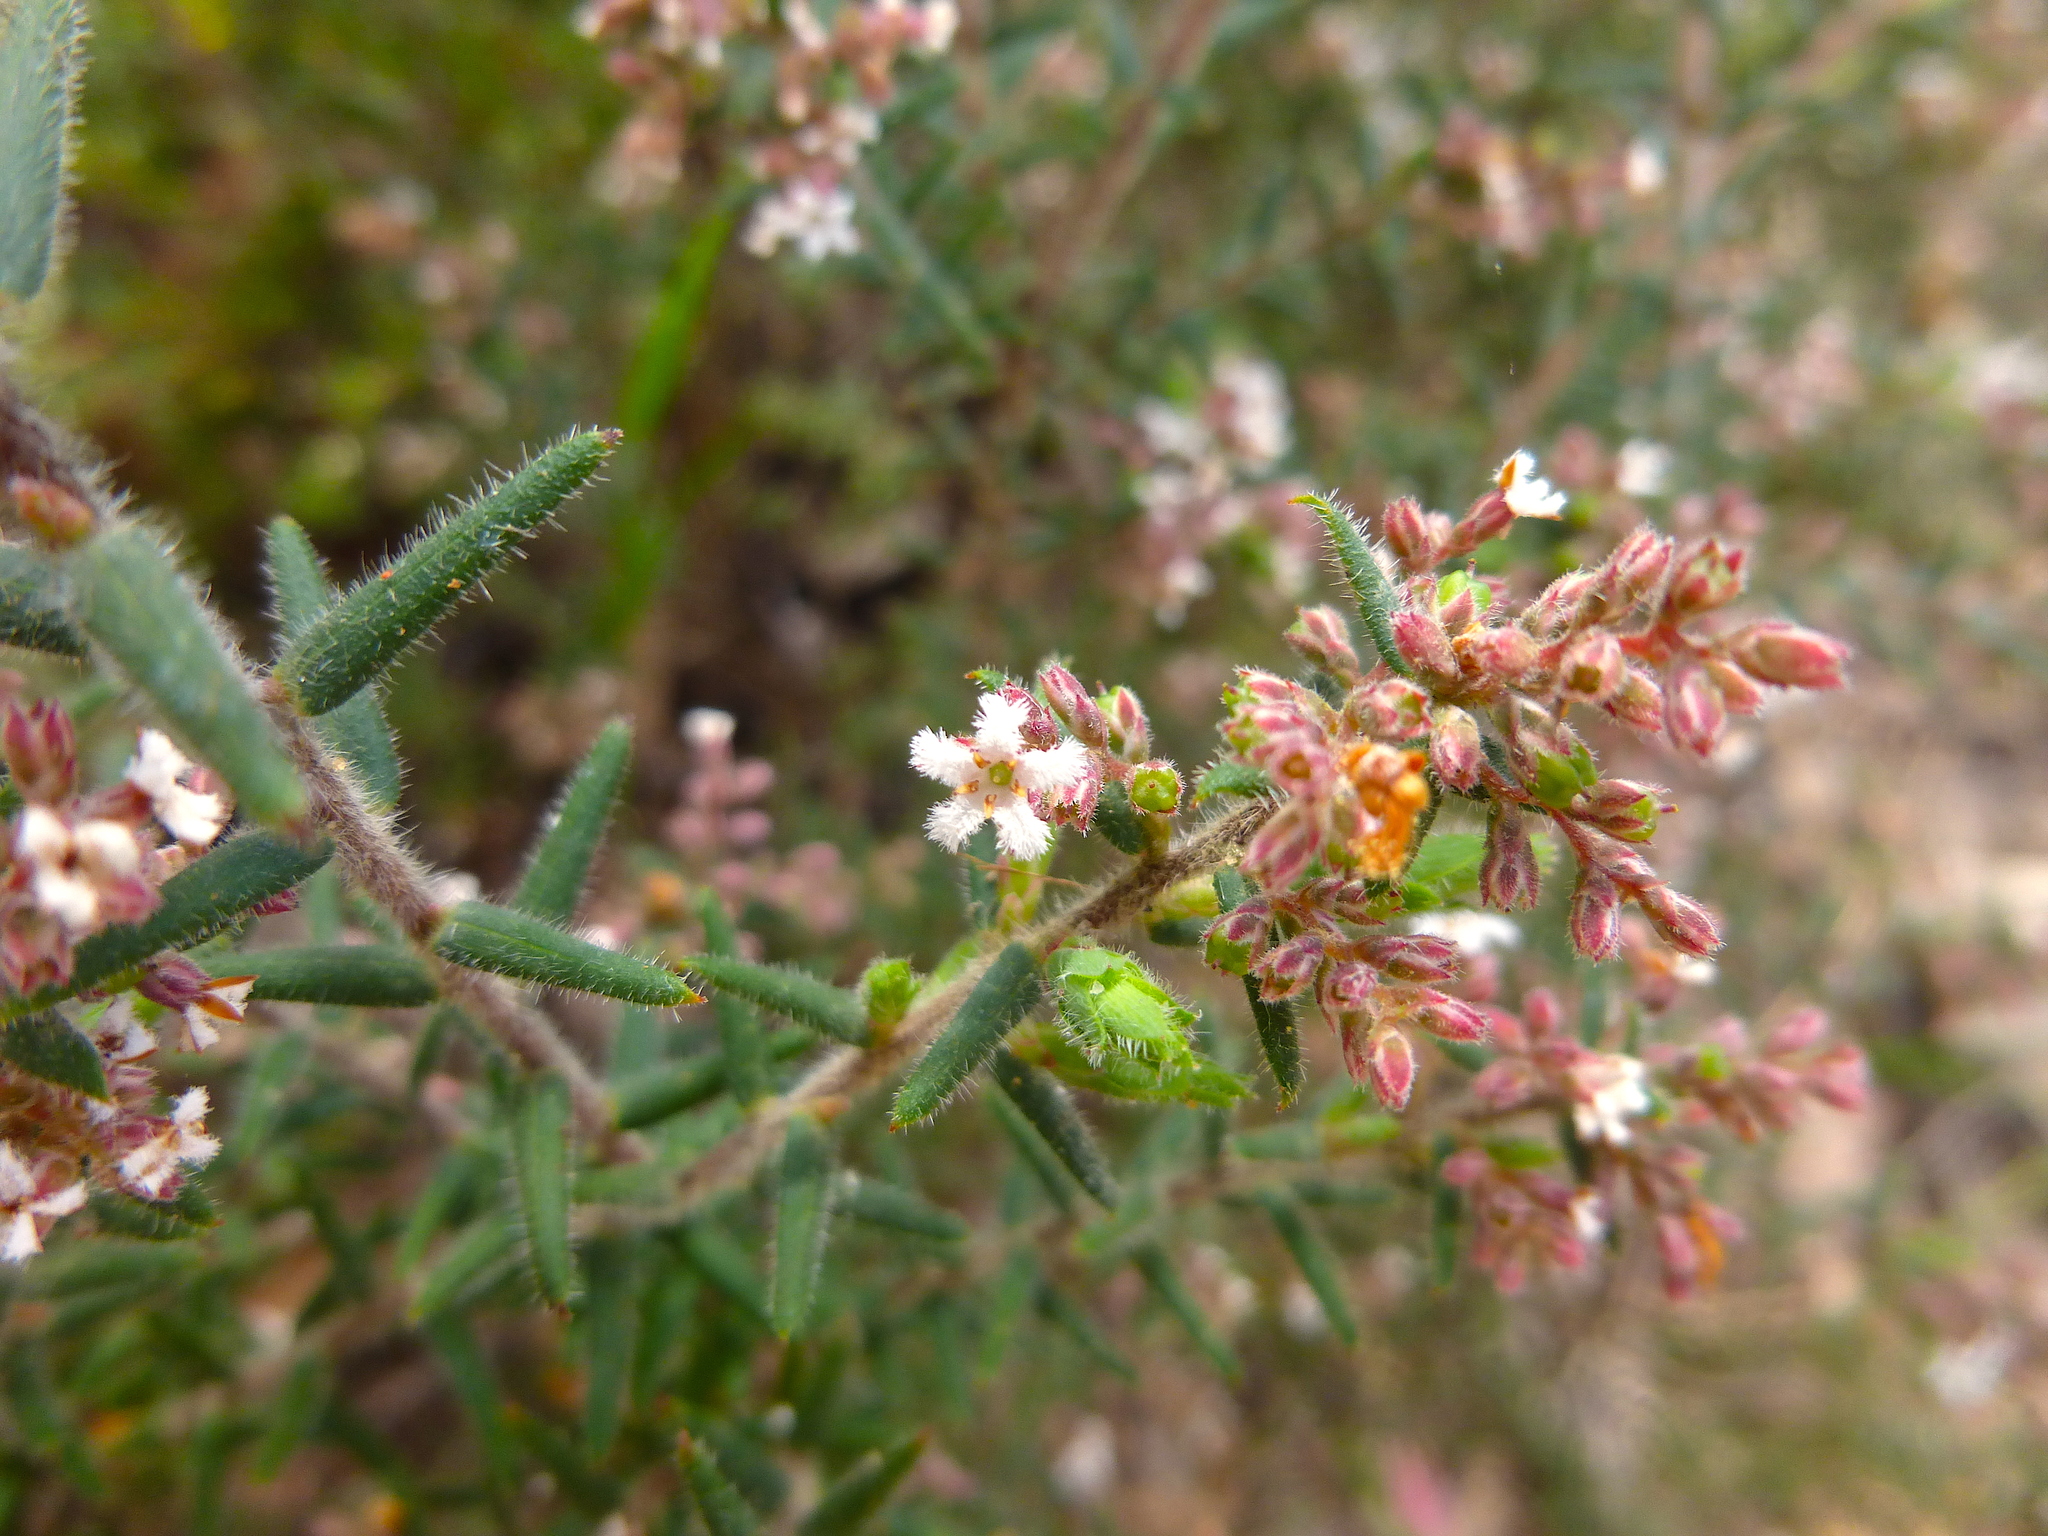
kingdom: Plantae
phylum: Tracheophyta
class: Magnoliopsida
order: Ericales
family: Ericaceae
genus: Leucopogon
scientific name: Leucopogon thymifolius
